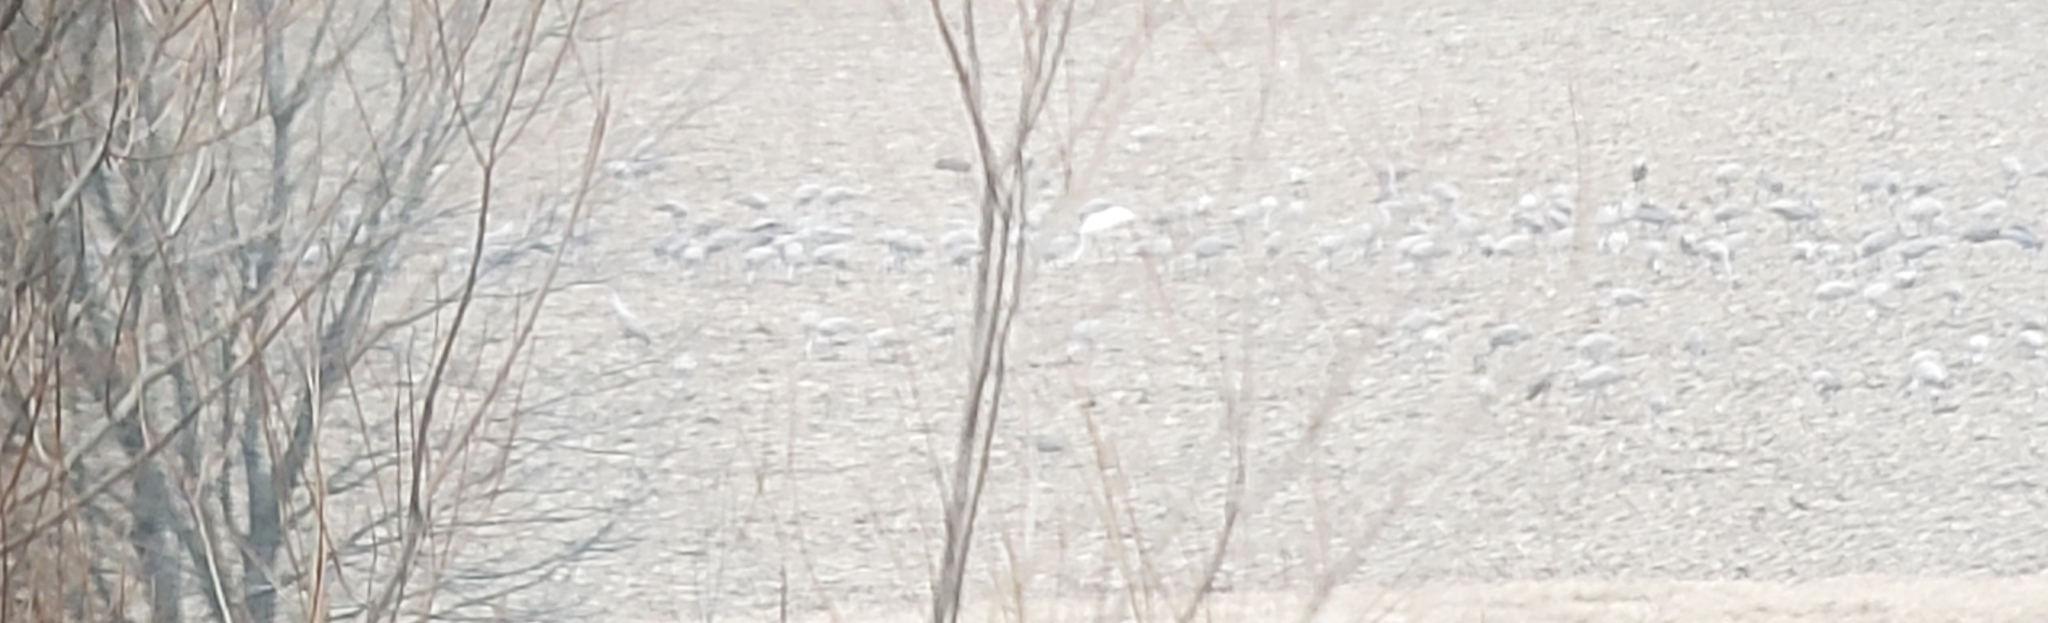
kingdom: Animalia
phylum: Chordata
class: Aves
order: Gruiformes
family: Gruidae
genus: Grus
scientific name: Grus canadensis
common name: Sandhill crane
